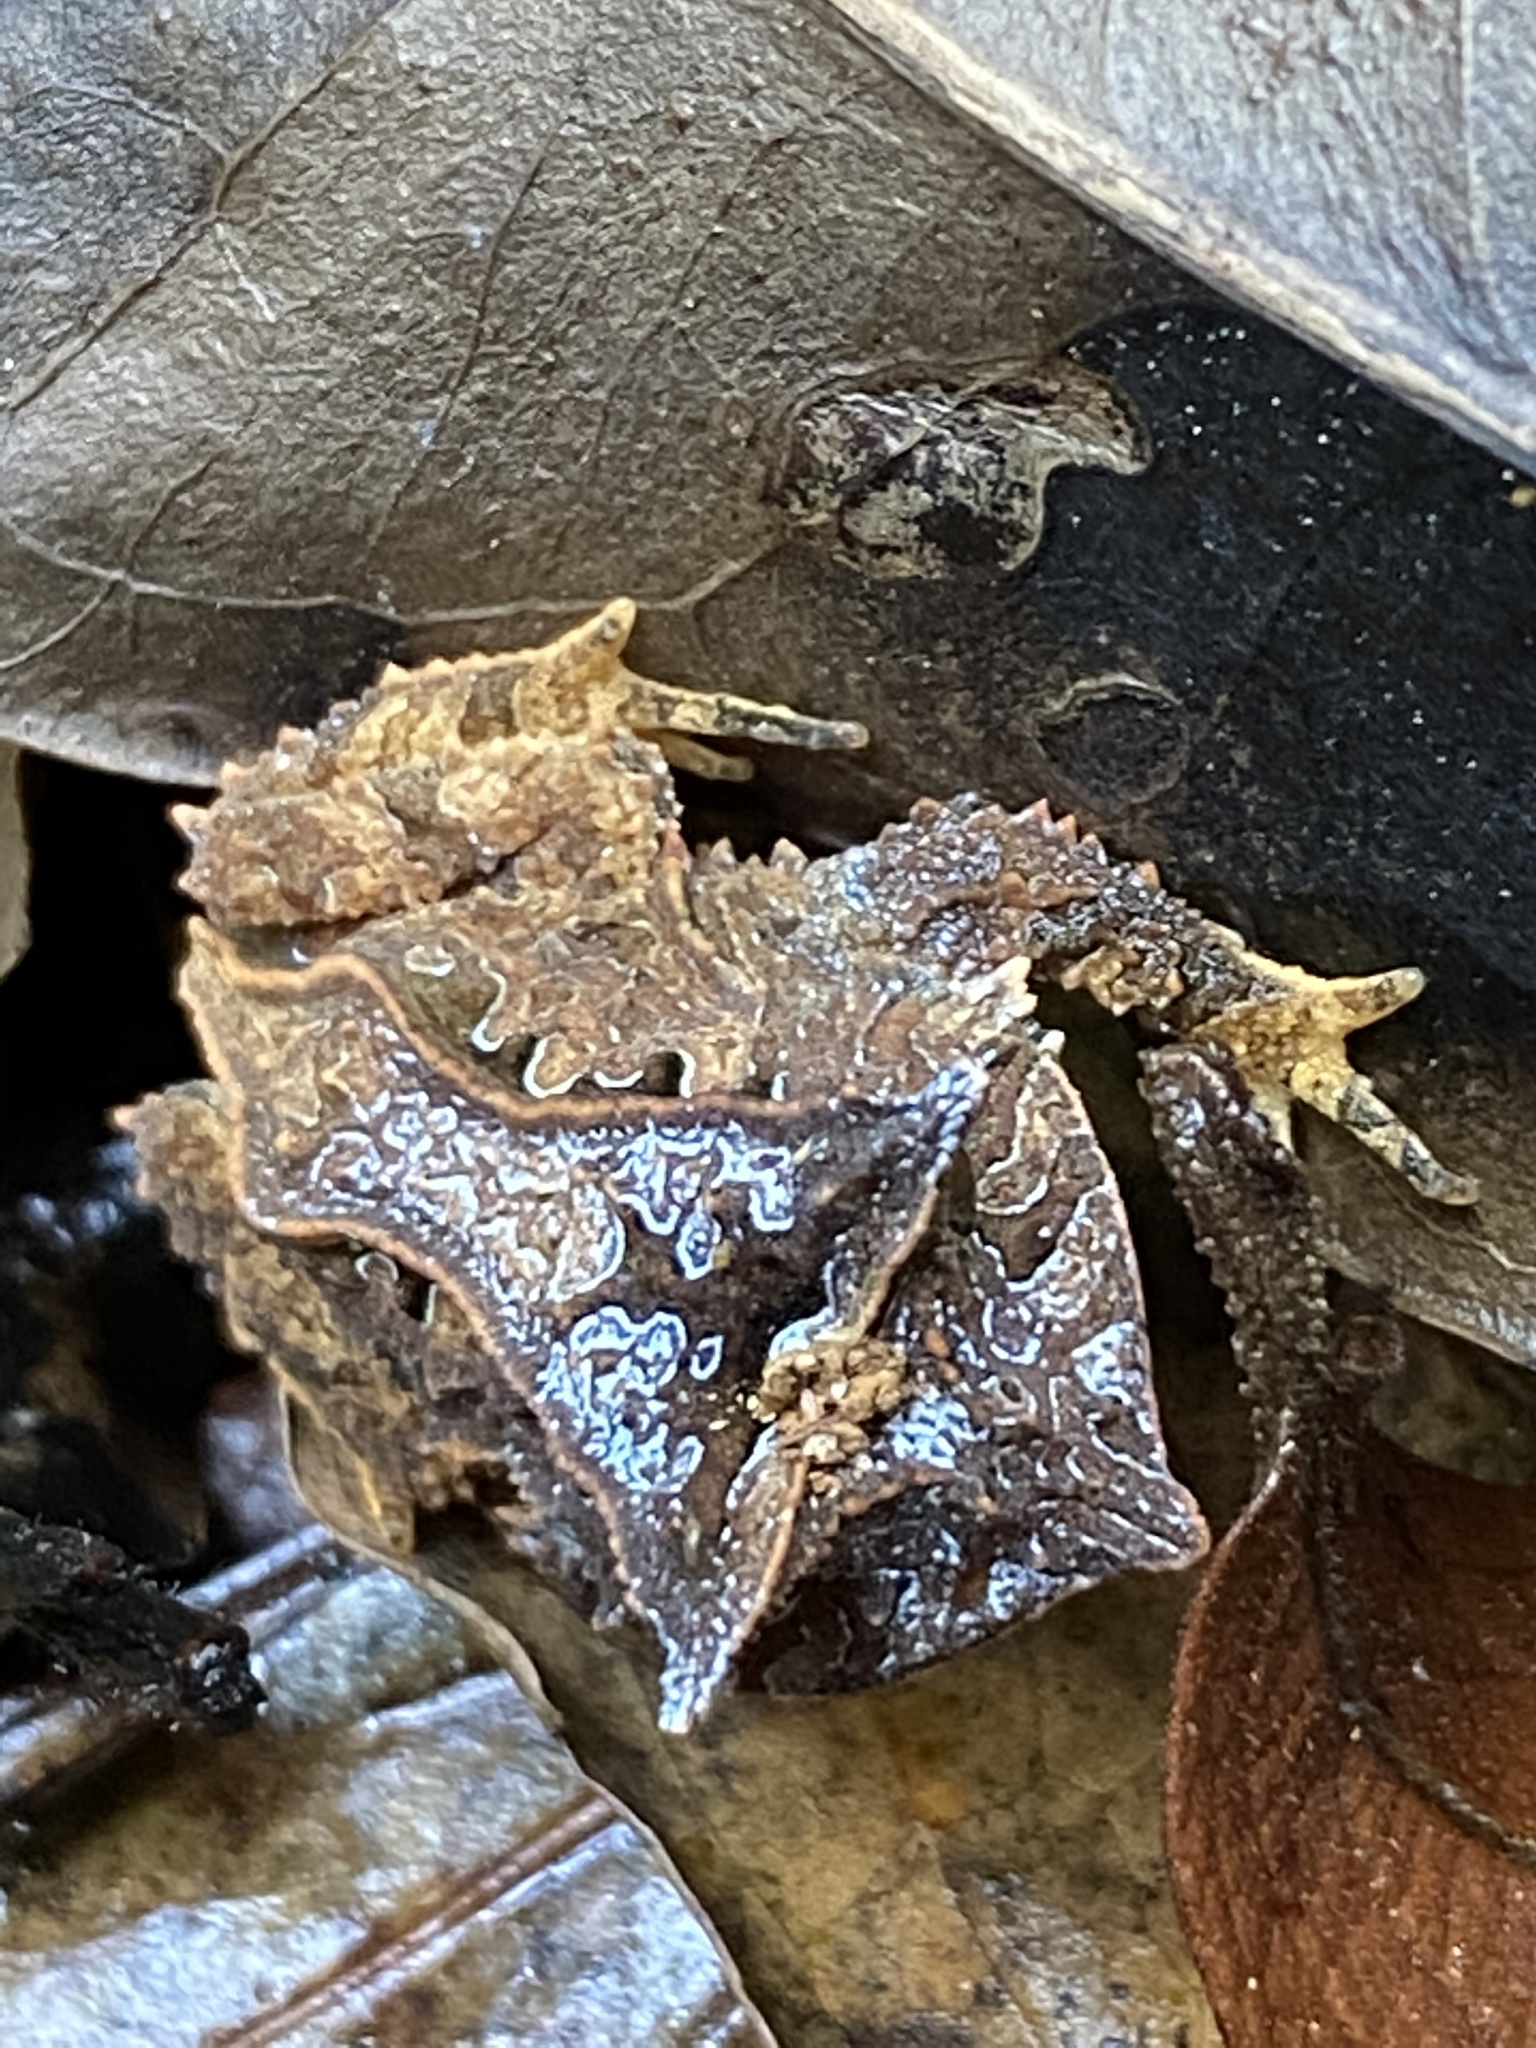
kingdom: Animalia
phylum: Chordata
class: Amphibia
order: Anura
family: Odontophrynidae
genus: Proceratophrys
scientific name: Proceratophrys appendiculata
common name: Guenther's horned frog
